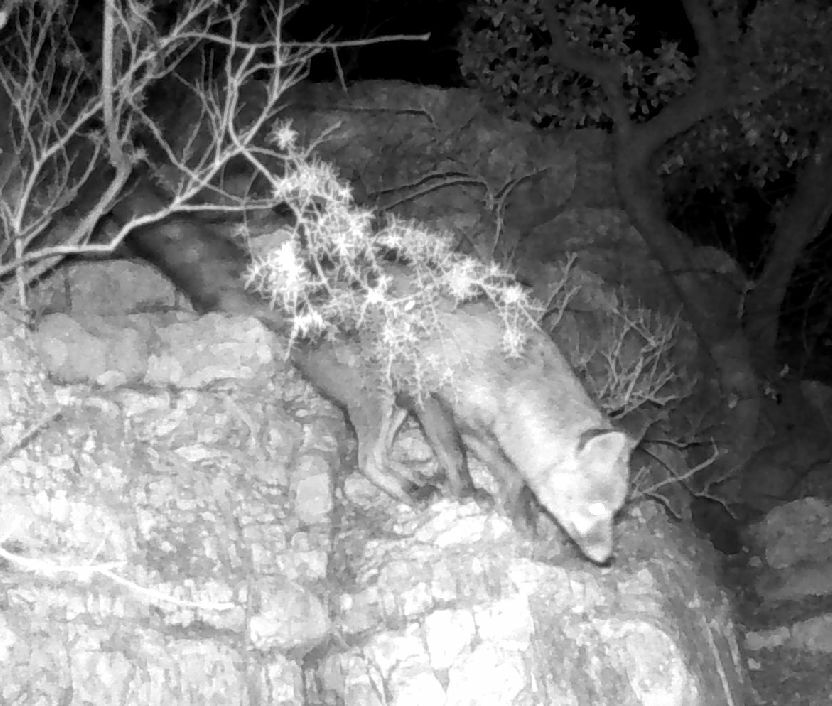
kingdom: Animalia
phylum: Chordata
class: Mammalia
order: Carnivora
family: Canidae
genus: Vulpes
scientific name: Vulpes vulpes
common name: Red fox
